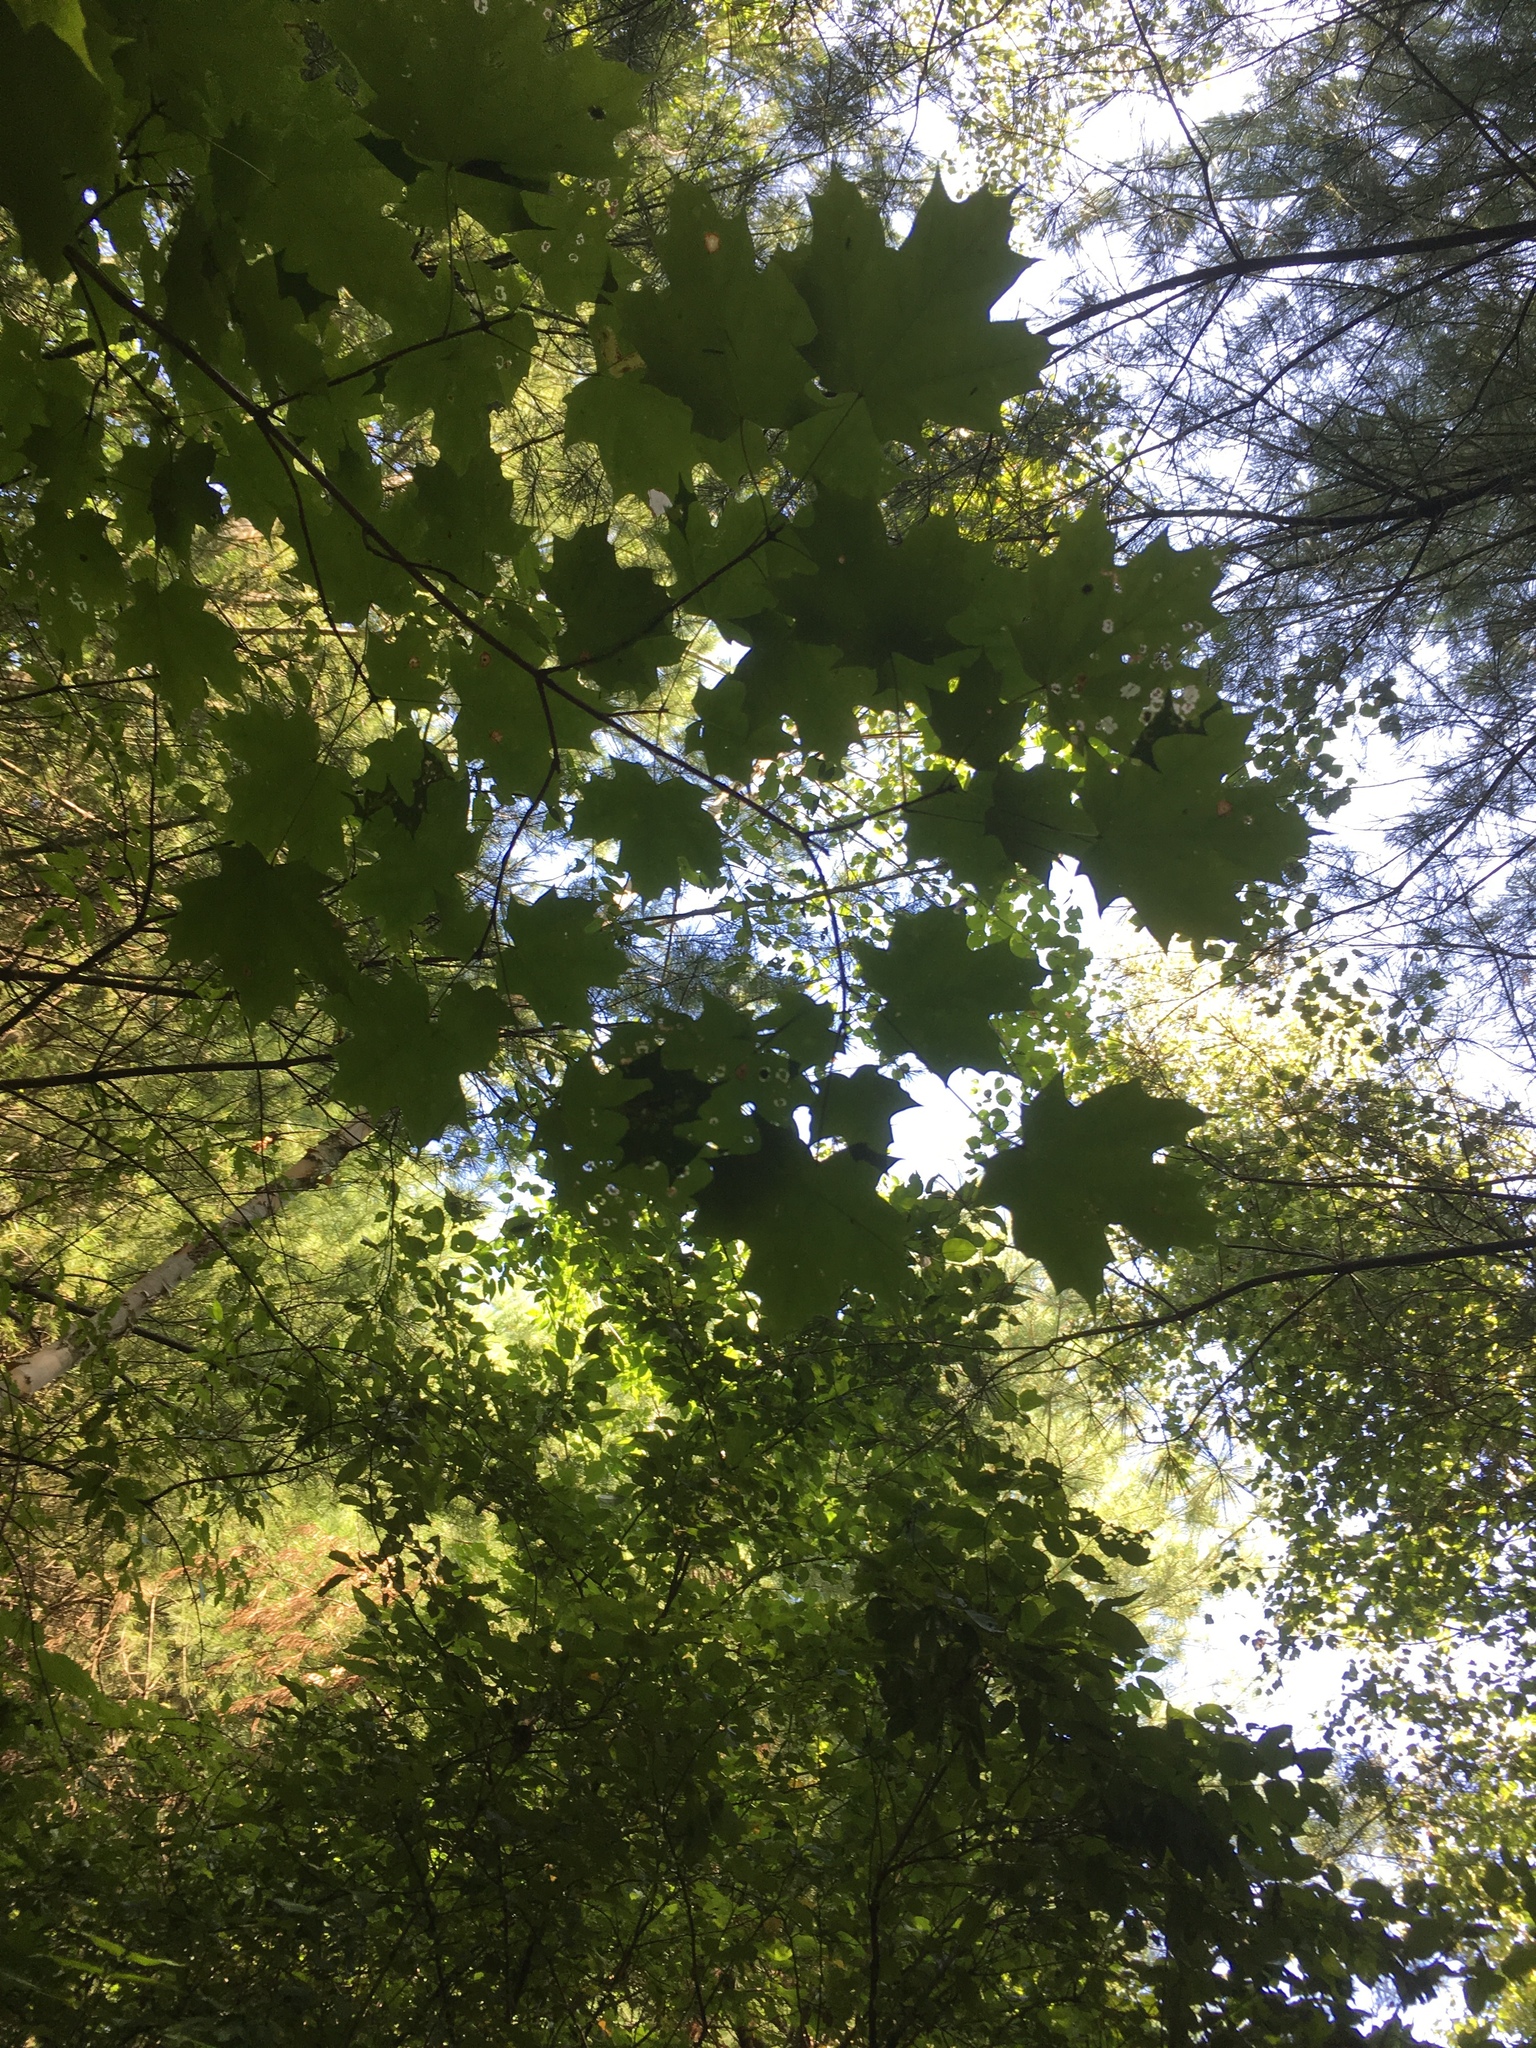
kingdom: Plantae
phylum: Tracheophyta
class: Magnoliopsida
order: Sapindales
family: Sapindaceae
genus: Acer
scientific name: Acer saccharum
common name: Sugar maple
